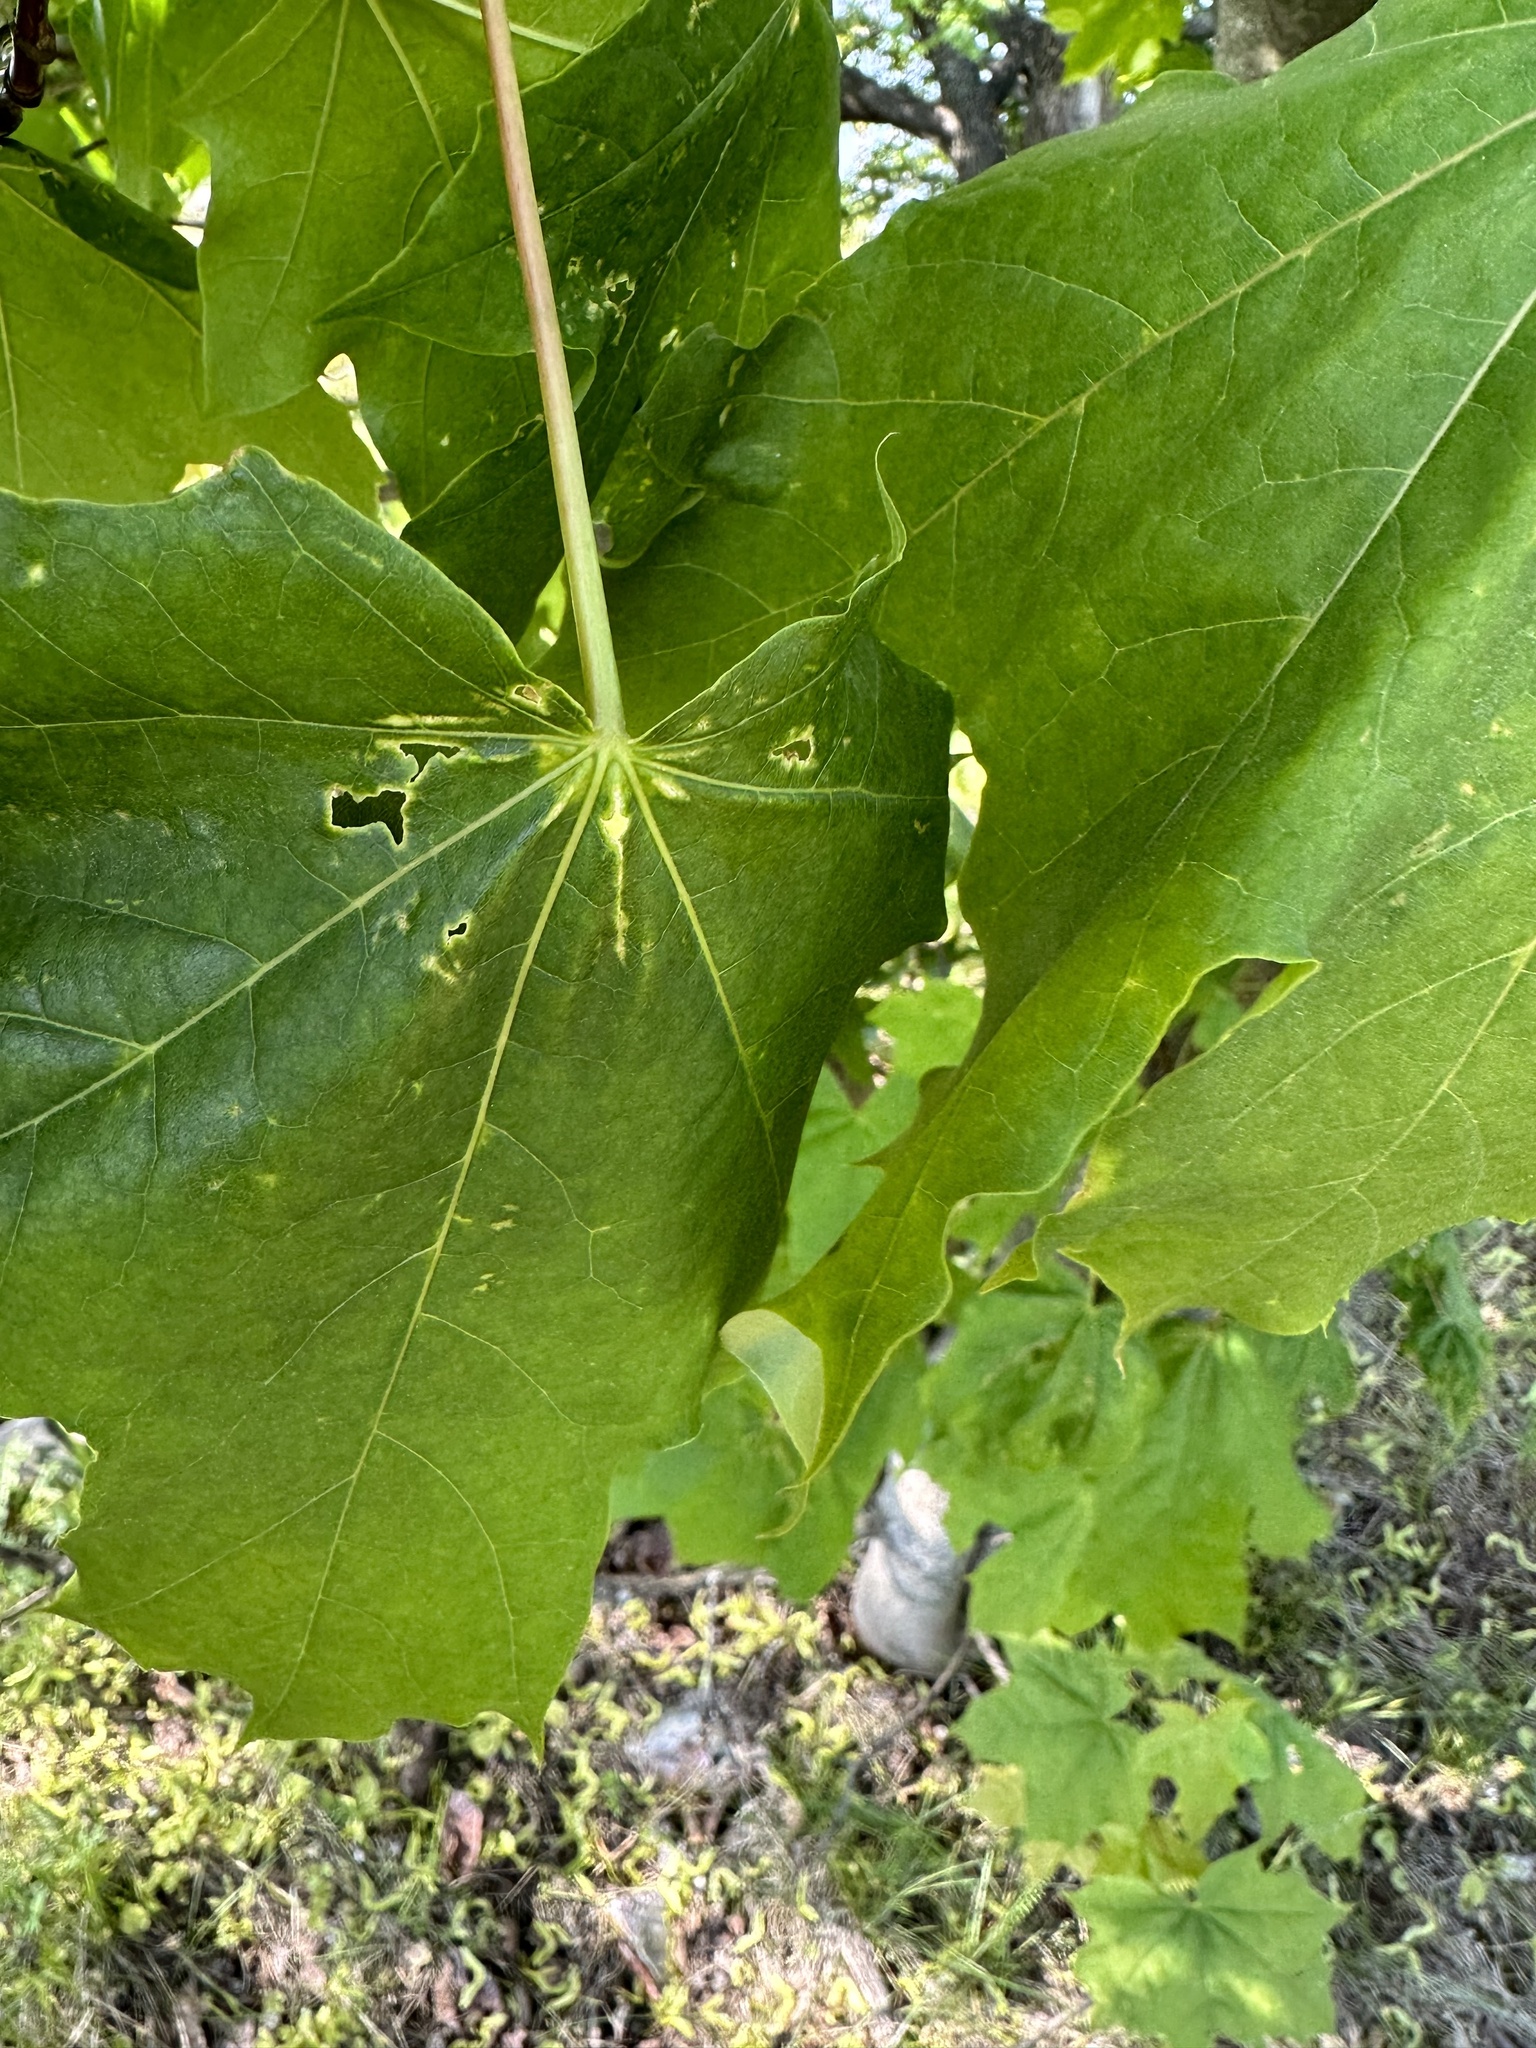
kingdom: Plantae
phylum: Tracheophyta
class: Magnoliopsida
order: Sapindales
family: Sapindaceae
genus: Acer
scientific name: Acer platanoides
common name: Norway maple
